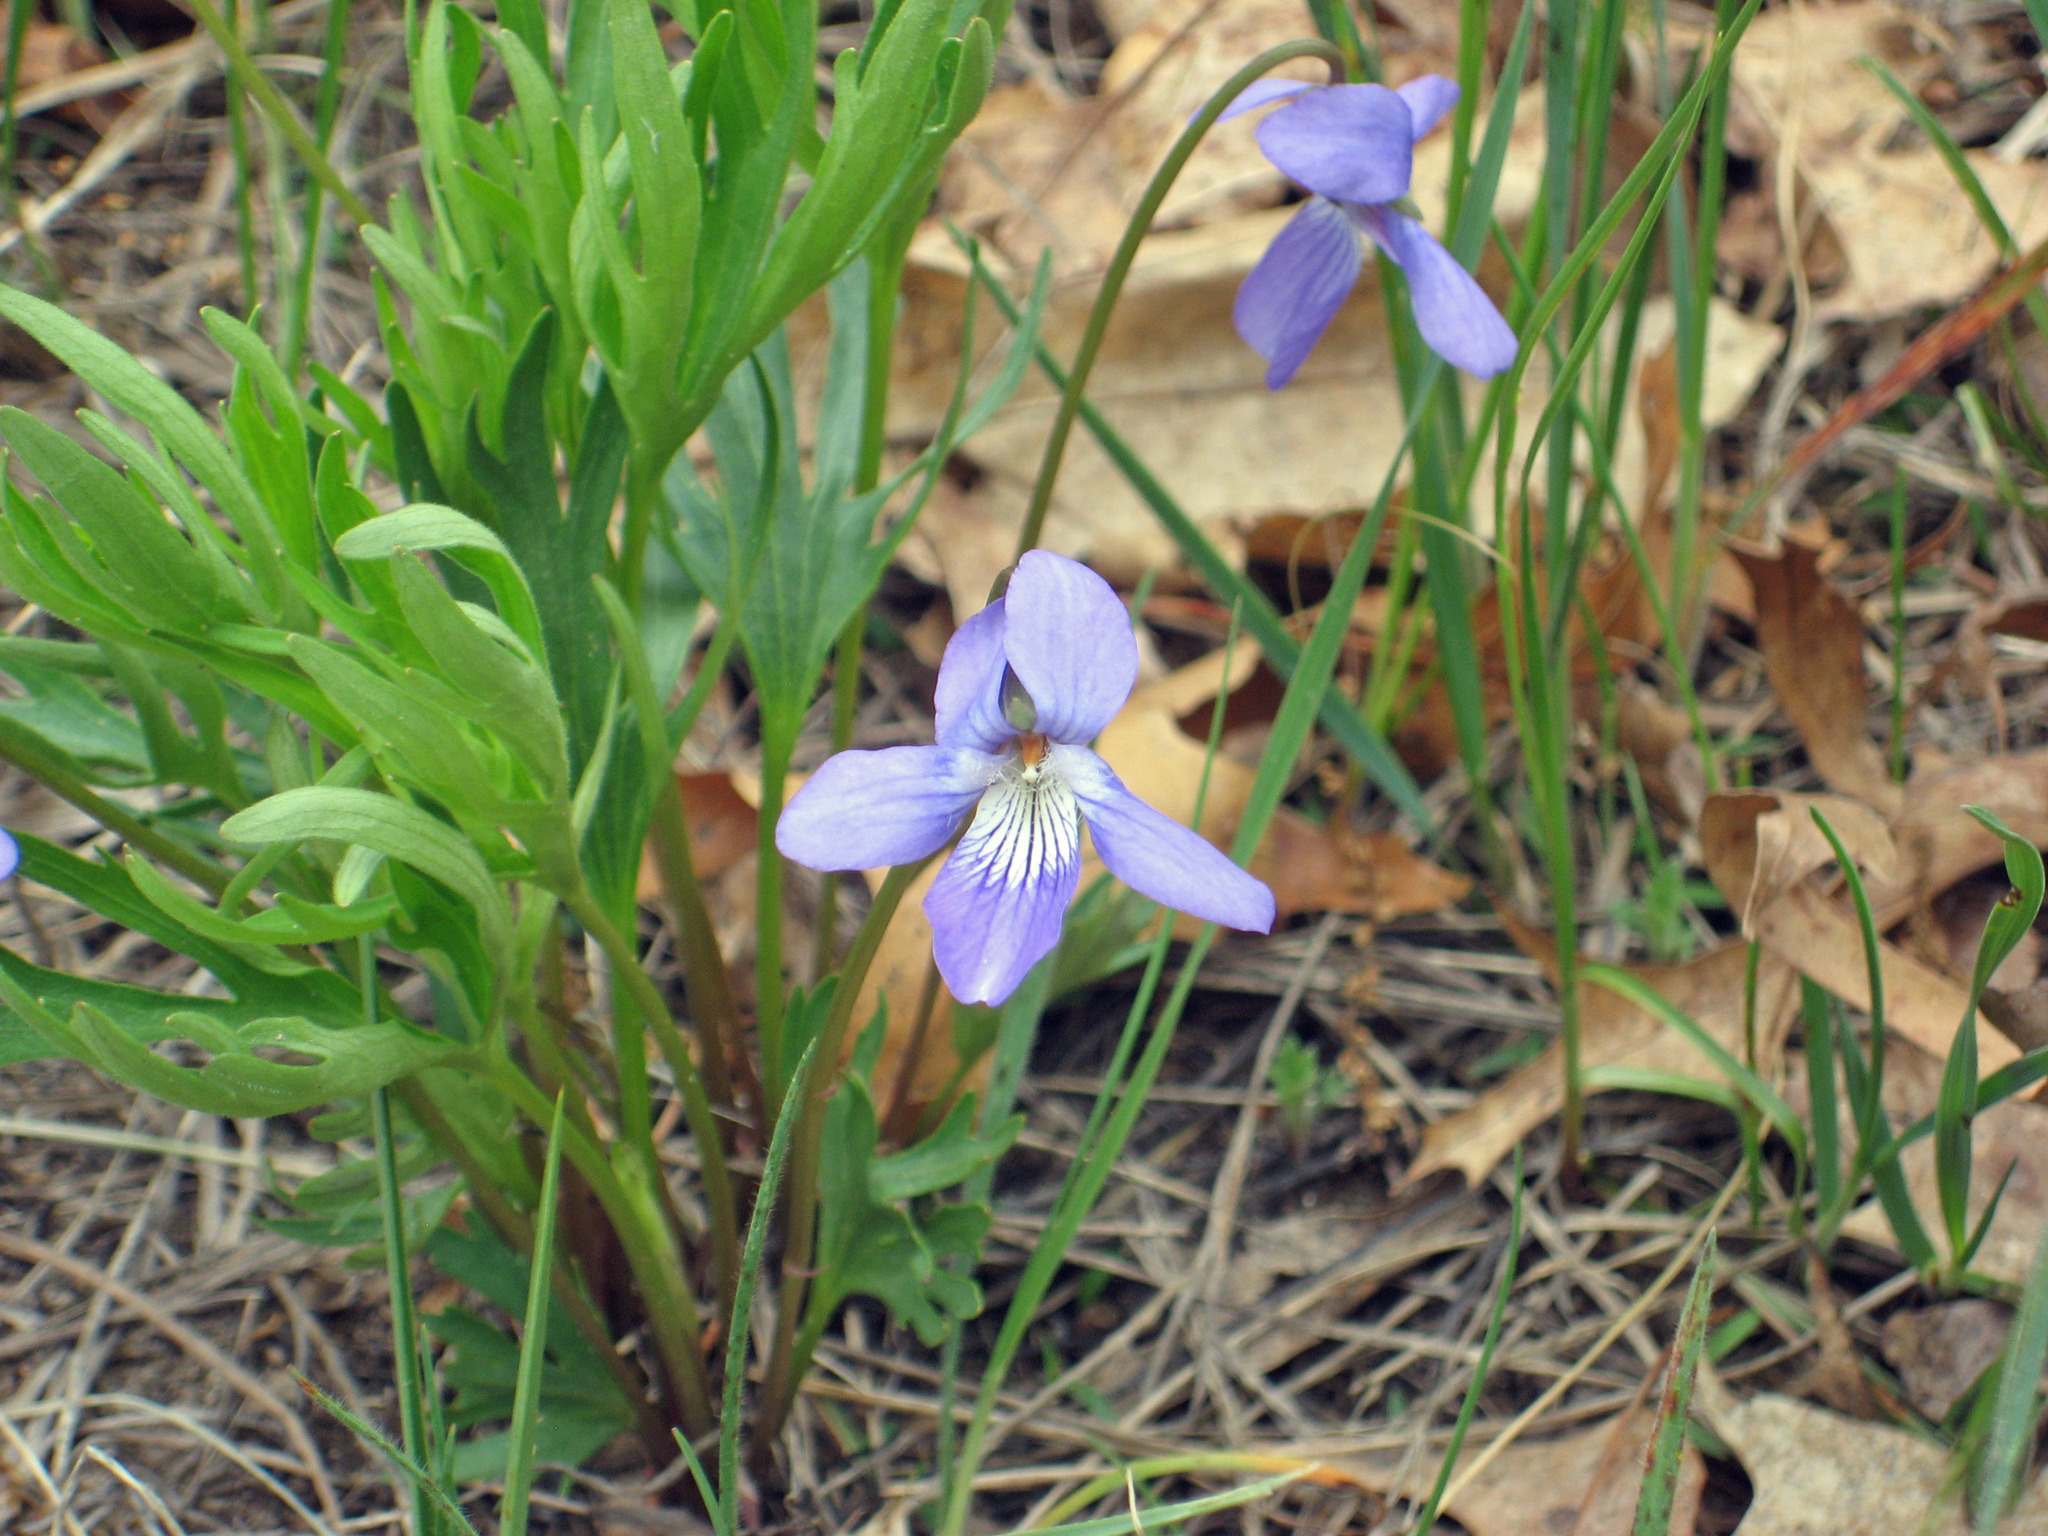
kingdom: Plantae
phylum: Tracheophyta
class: Magnoliopsida
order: Malpighiales
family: Violaceae
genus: Viola
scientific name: Viola pedatifida
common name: Prairie violet
